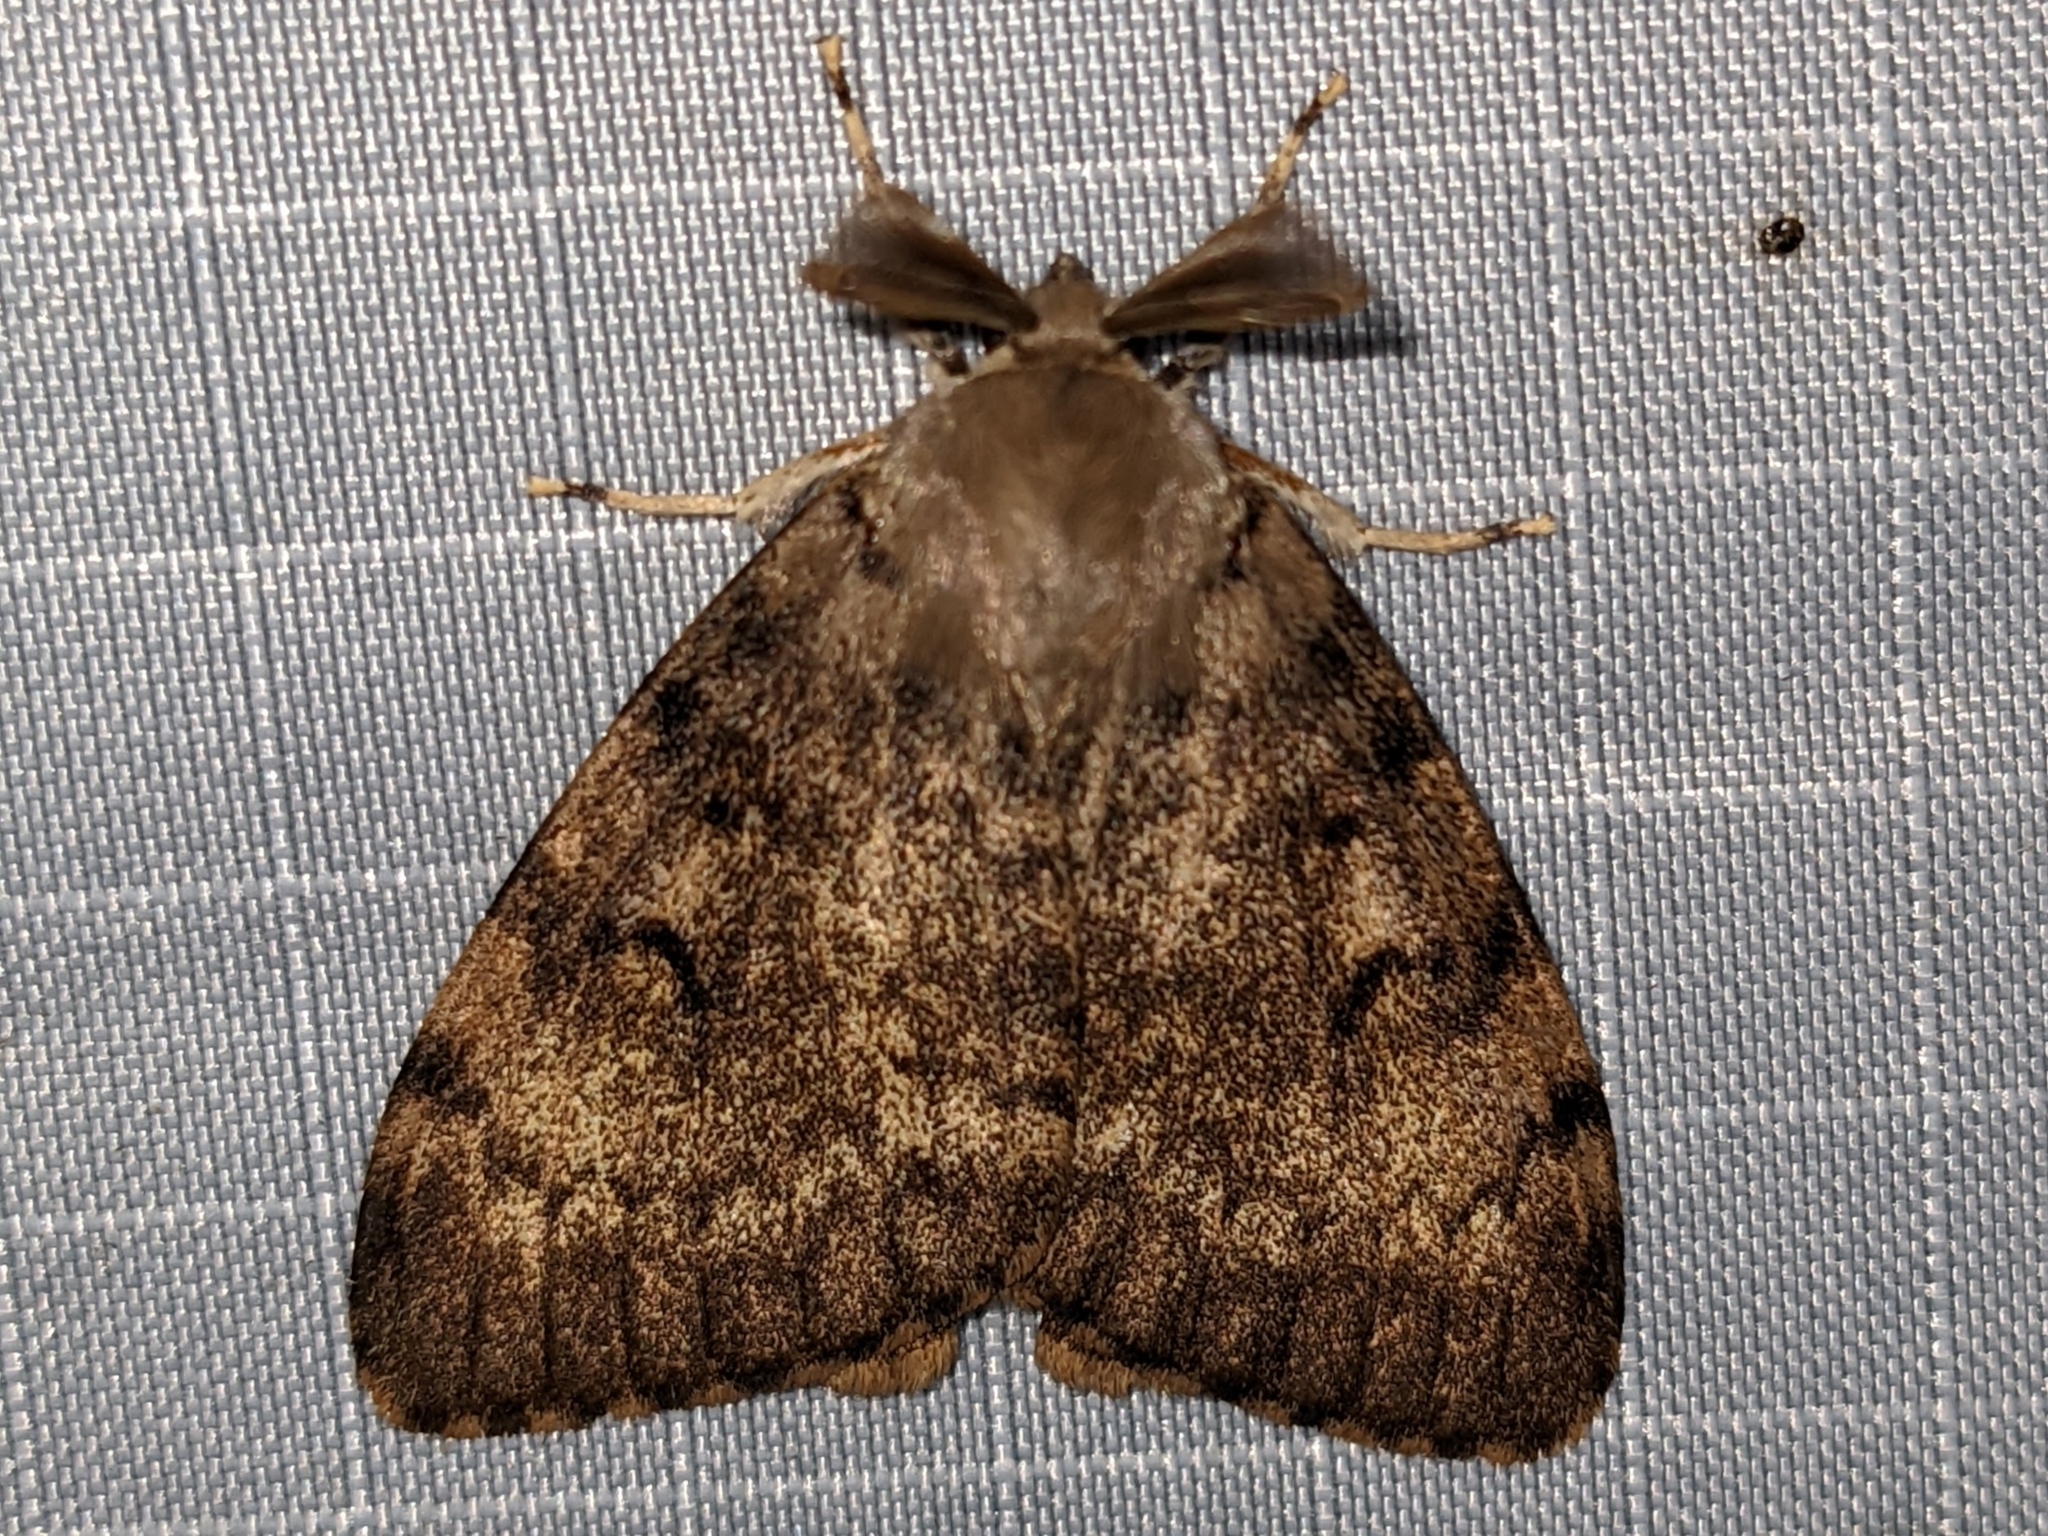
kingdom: Animalia
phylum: Arthropoda
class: Insecta
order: Lepidoptera
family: Erebidae
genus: Lymantria
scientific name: Lymantria dispar
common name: Gypsy moth
